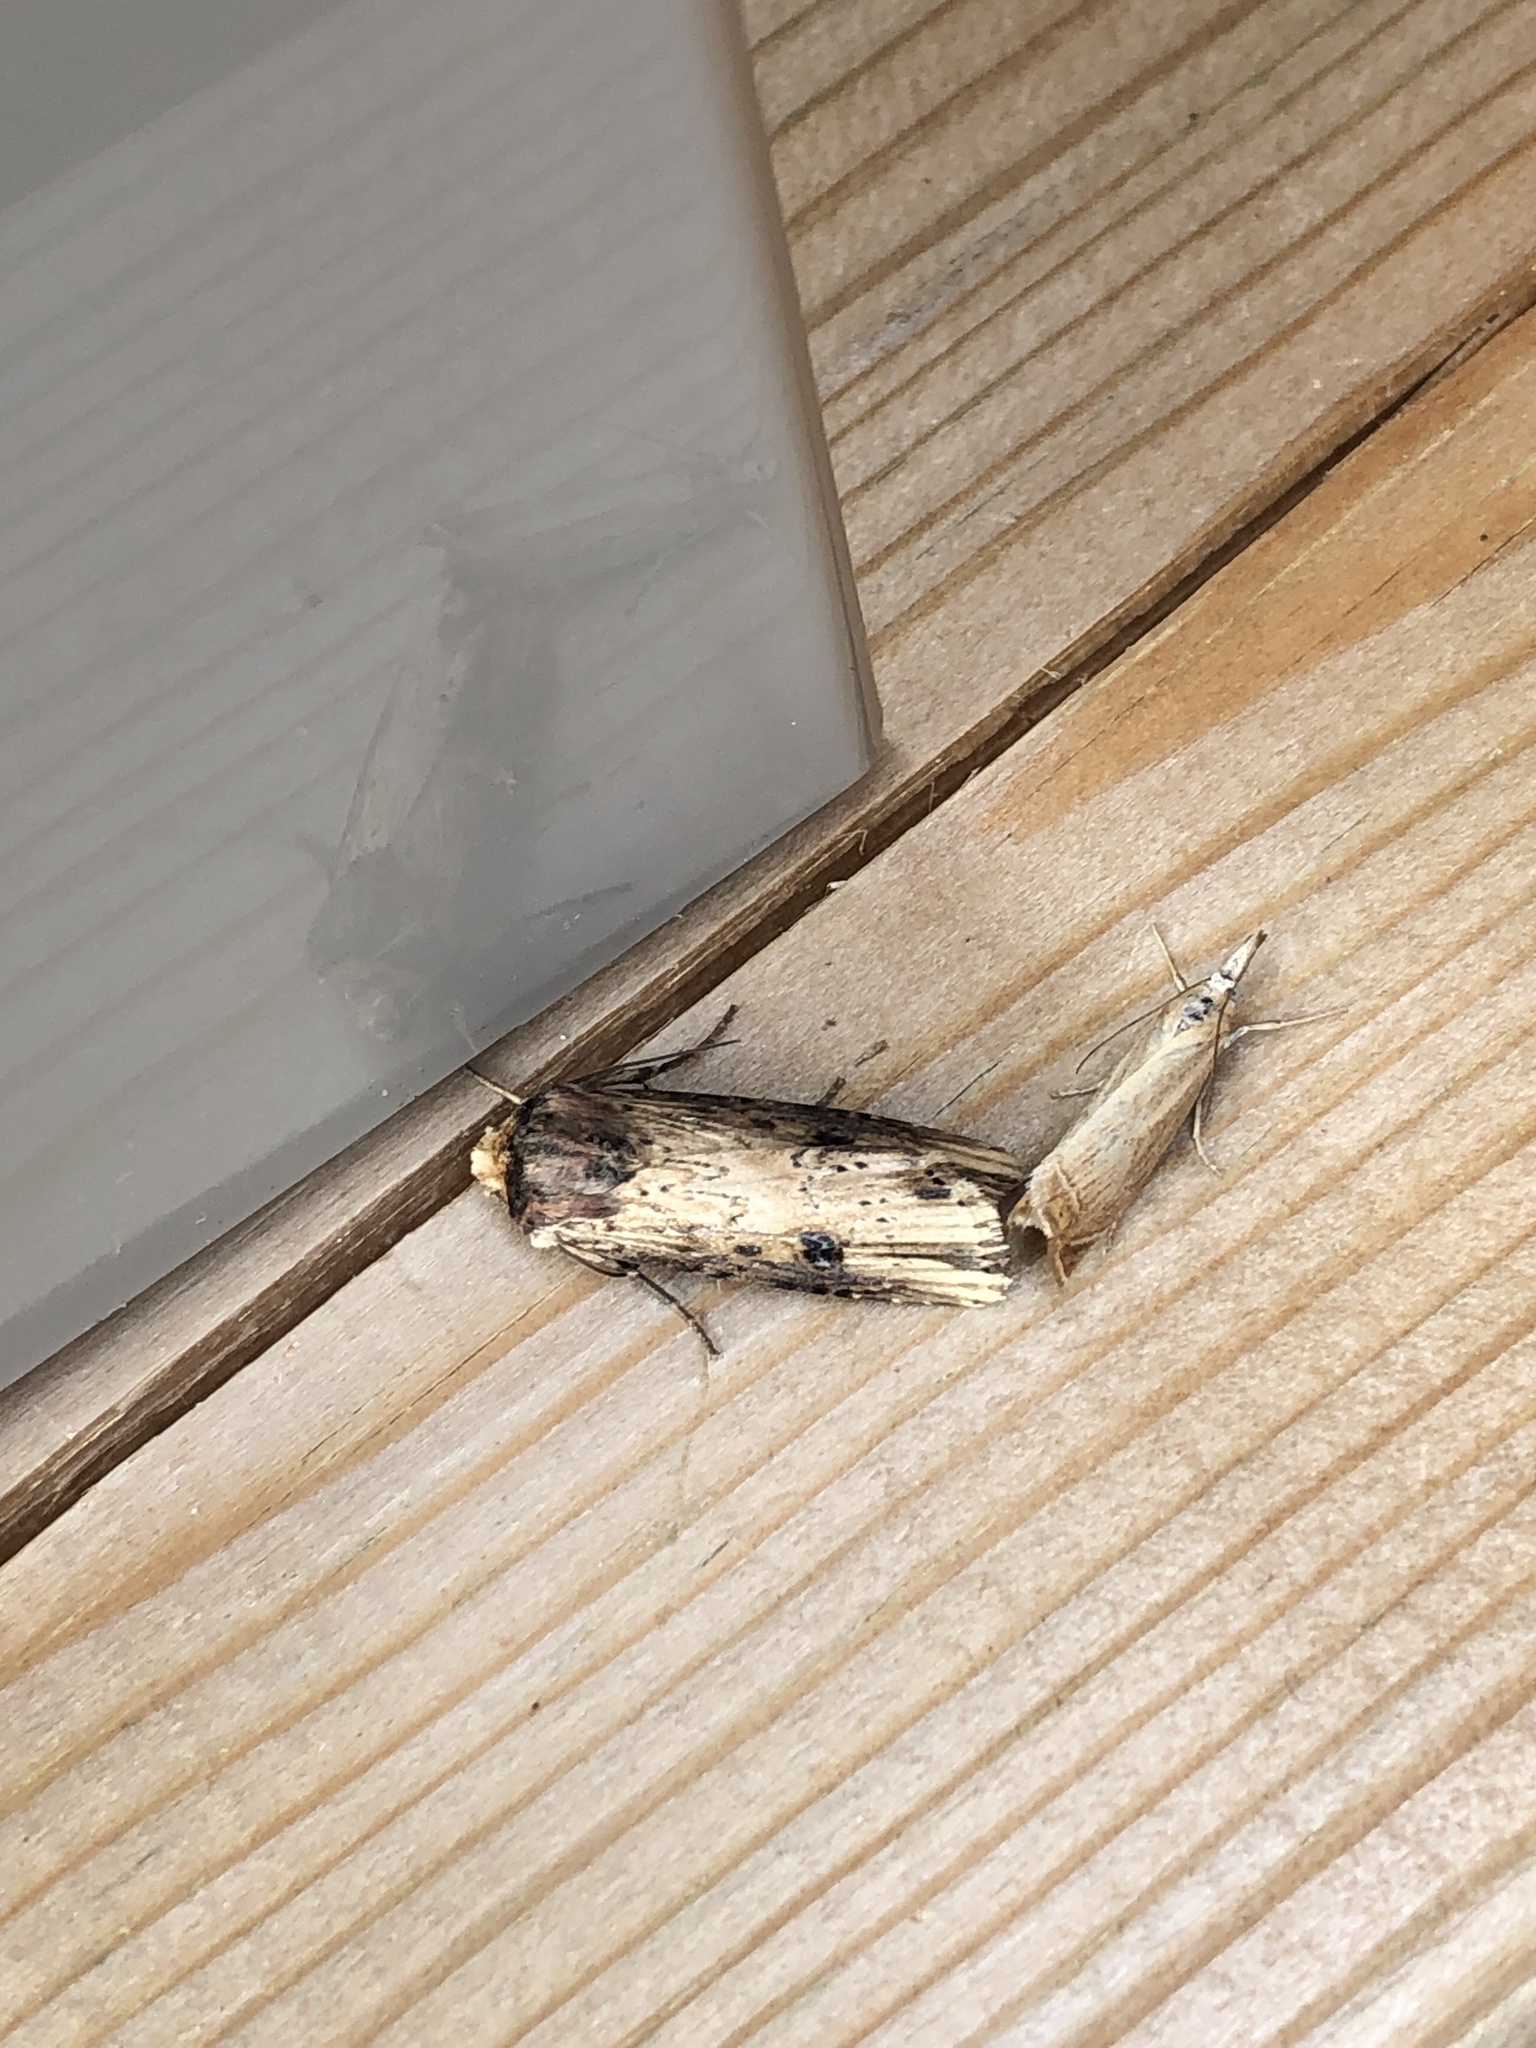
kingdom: Animalia
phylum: Arthropoda
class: Insecta
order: Lepidoptera
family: Noctuidae
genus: Axylia
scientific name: Axylia putris
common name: Flame
